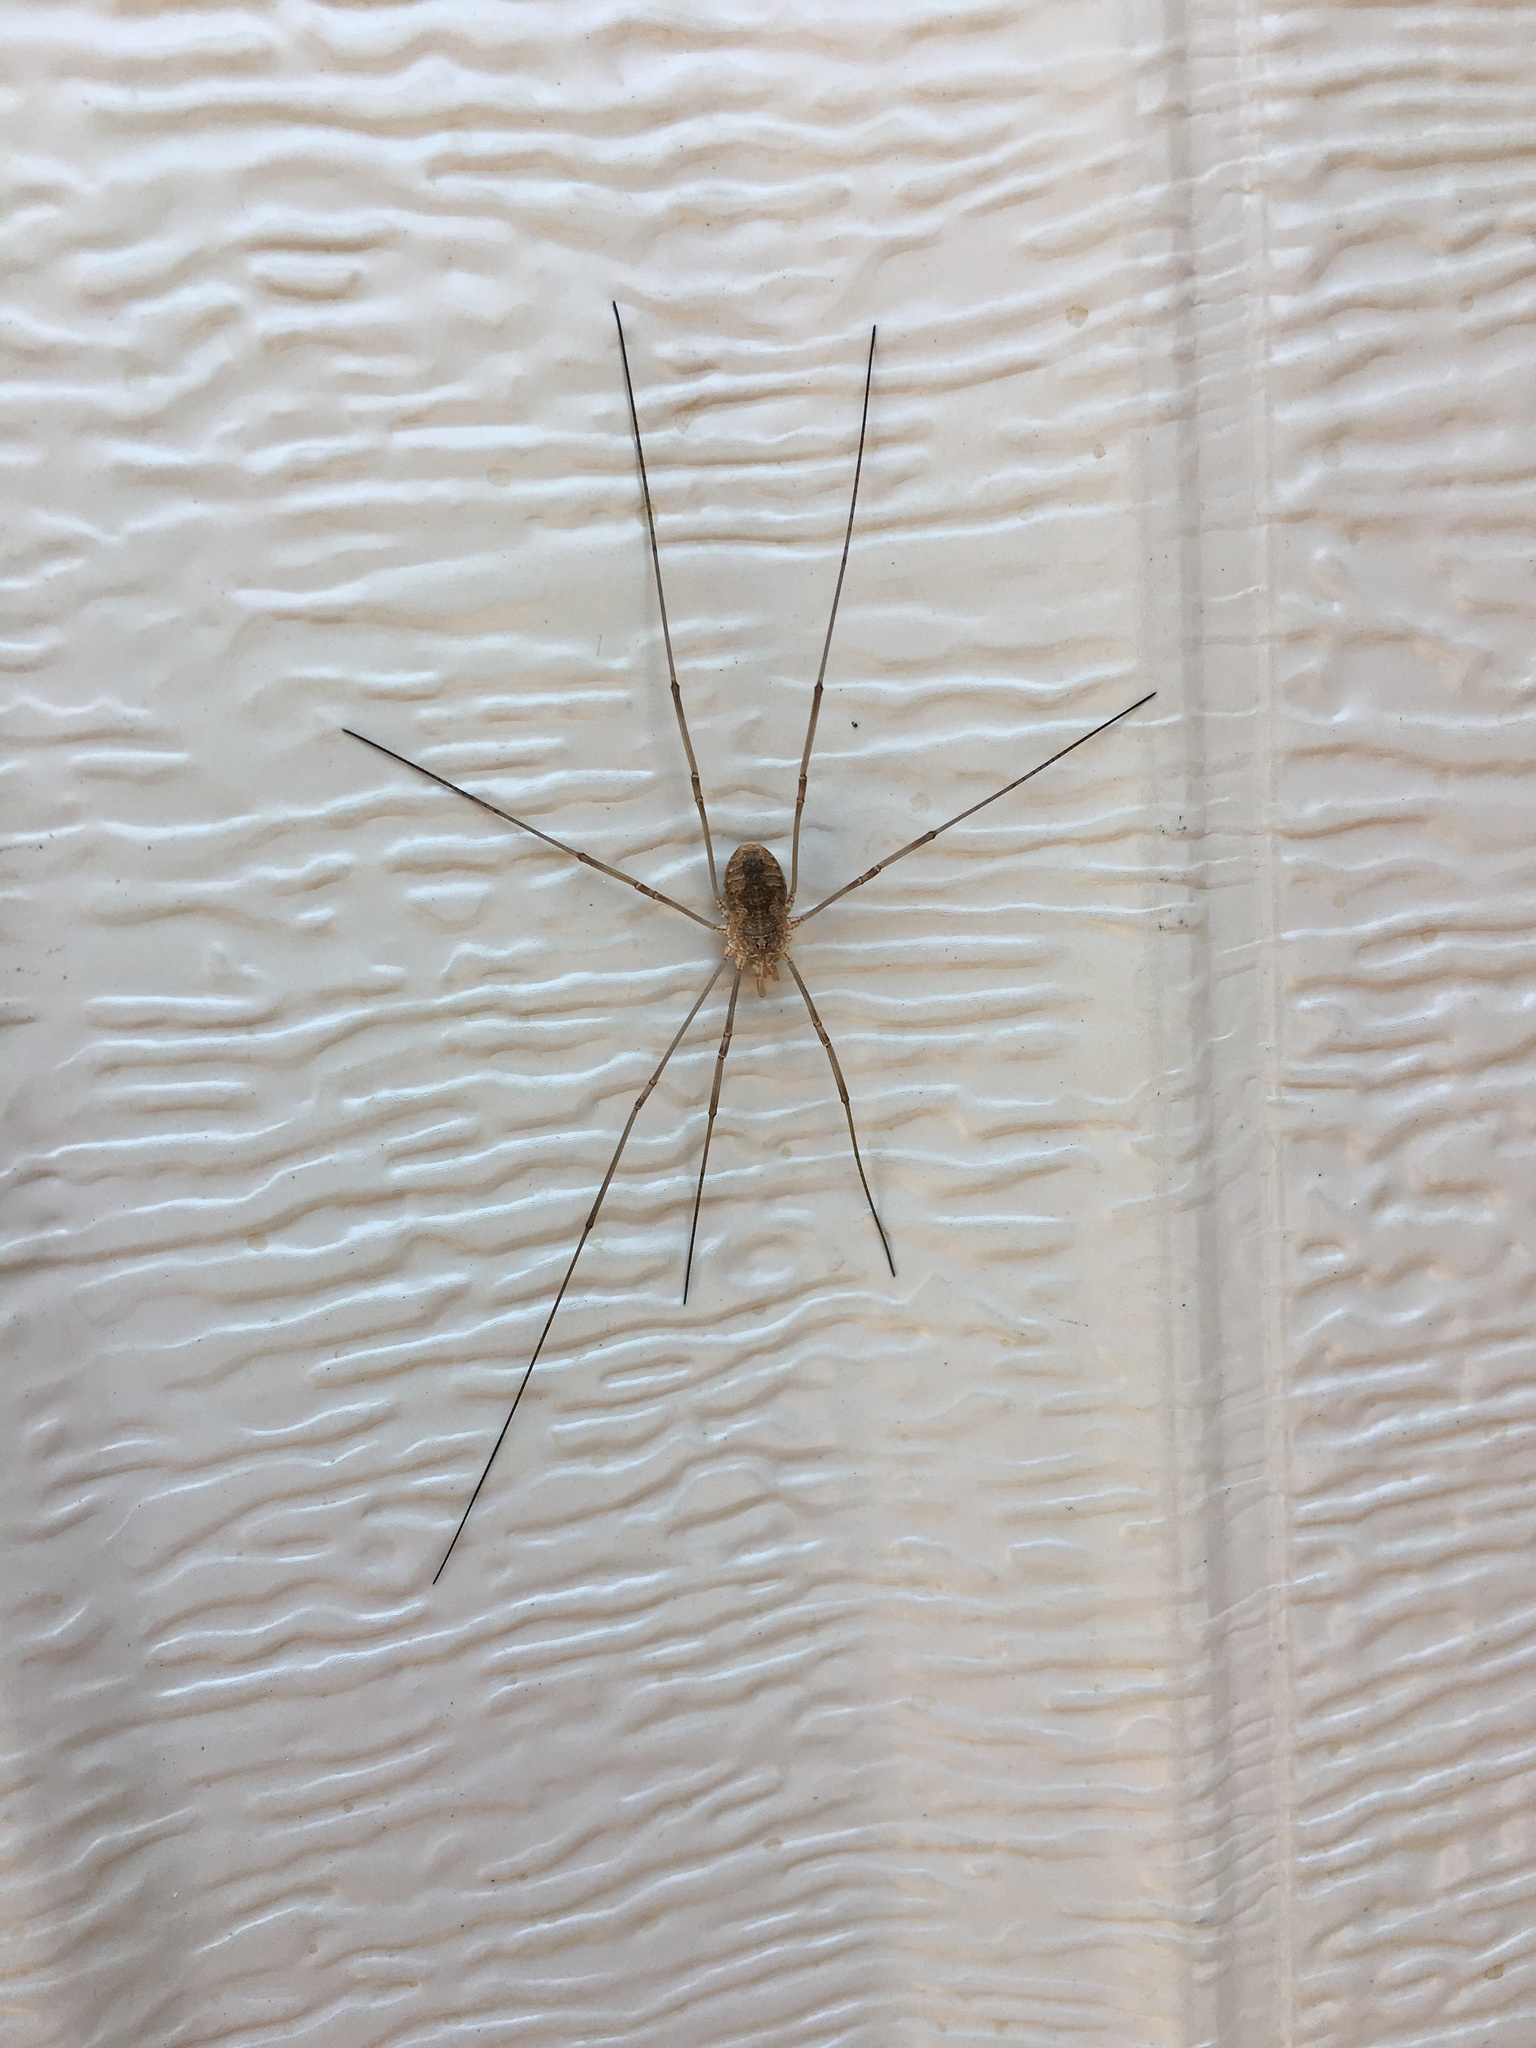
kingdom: Animalia
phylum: Arthropoda
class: Arachnida
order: Opiliones
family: Phalangiidae
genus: Phalangium
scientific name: Phalangium opilio
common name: Daddy longleg
